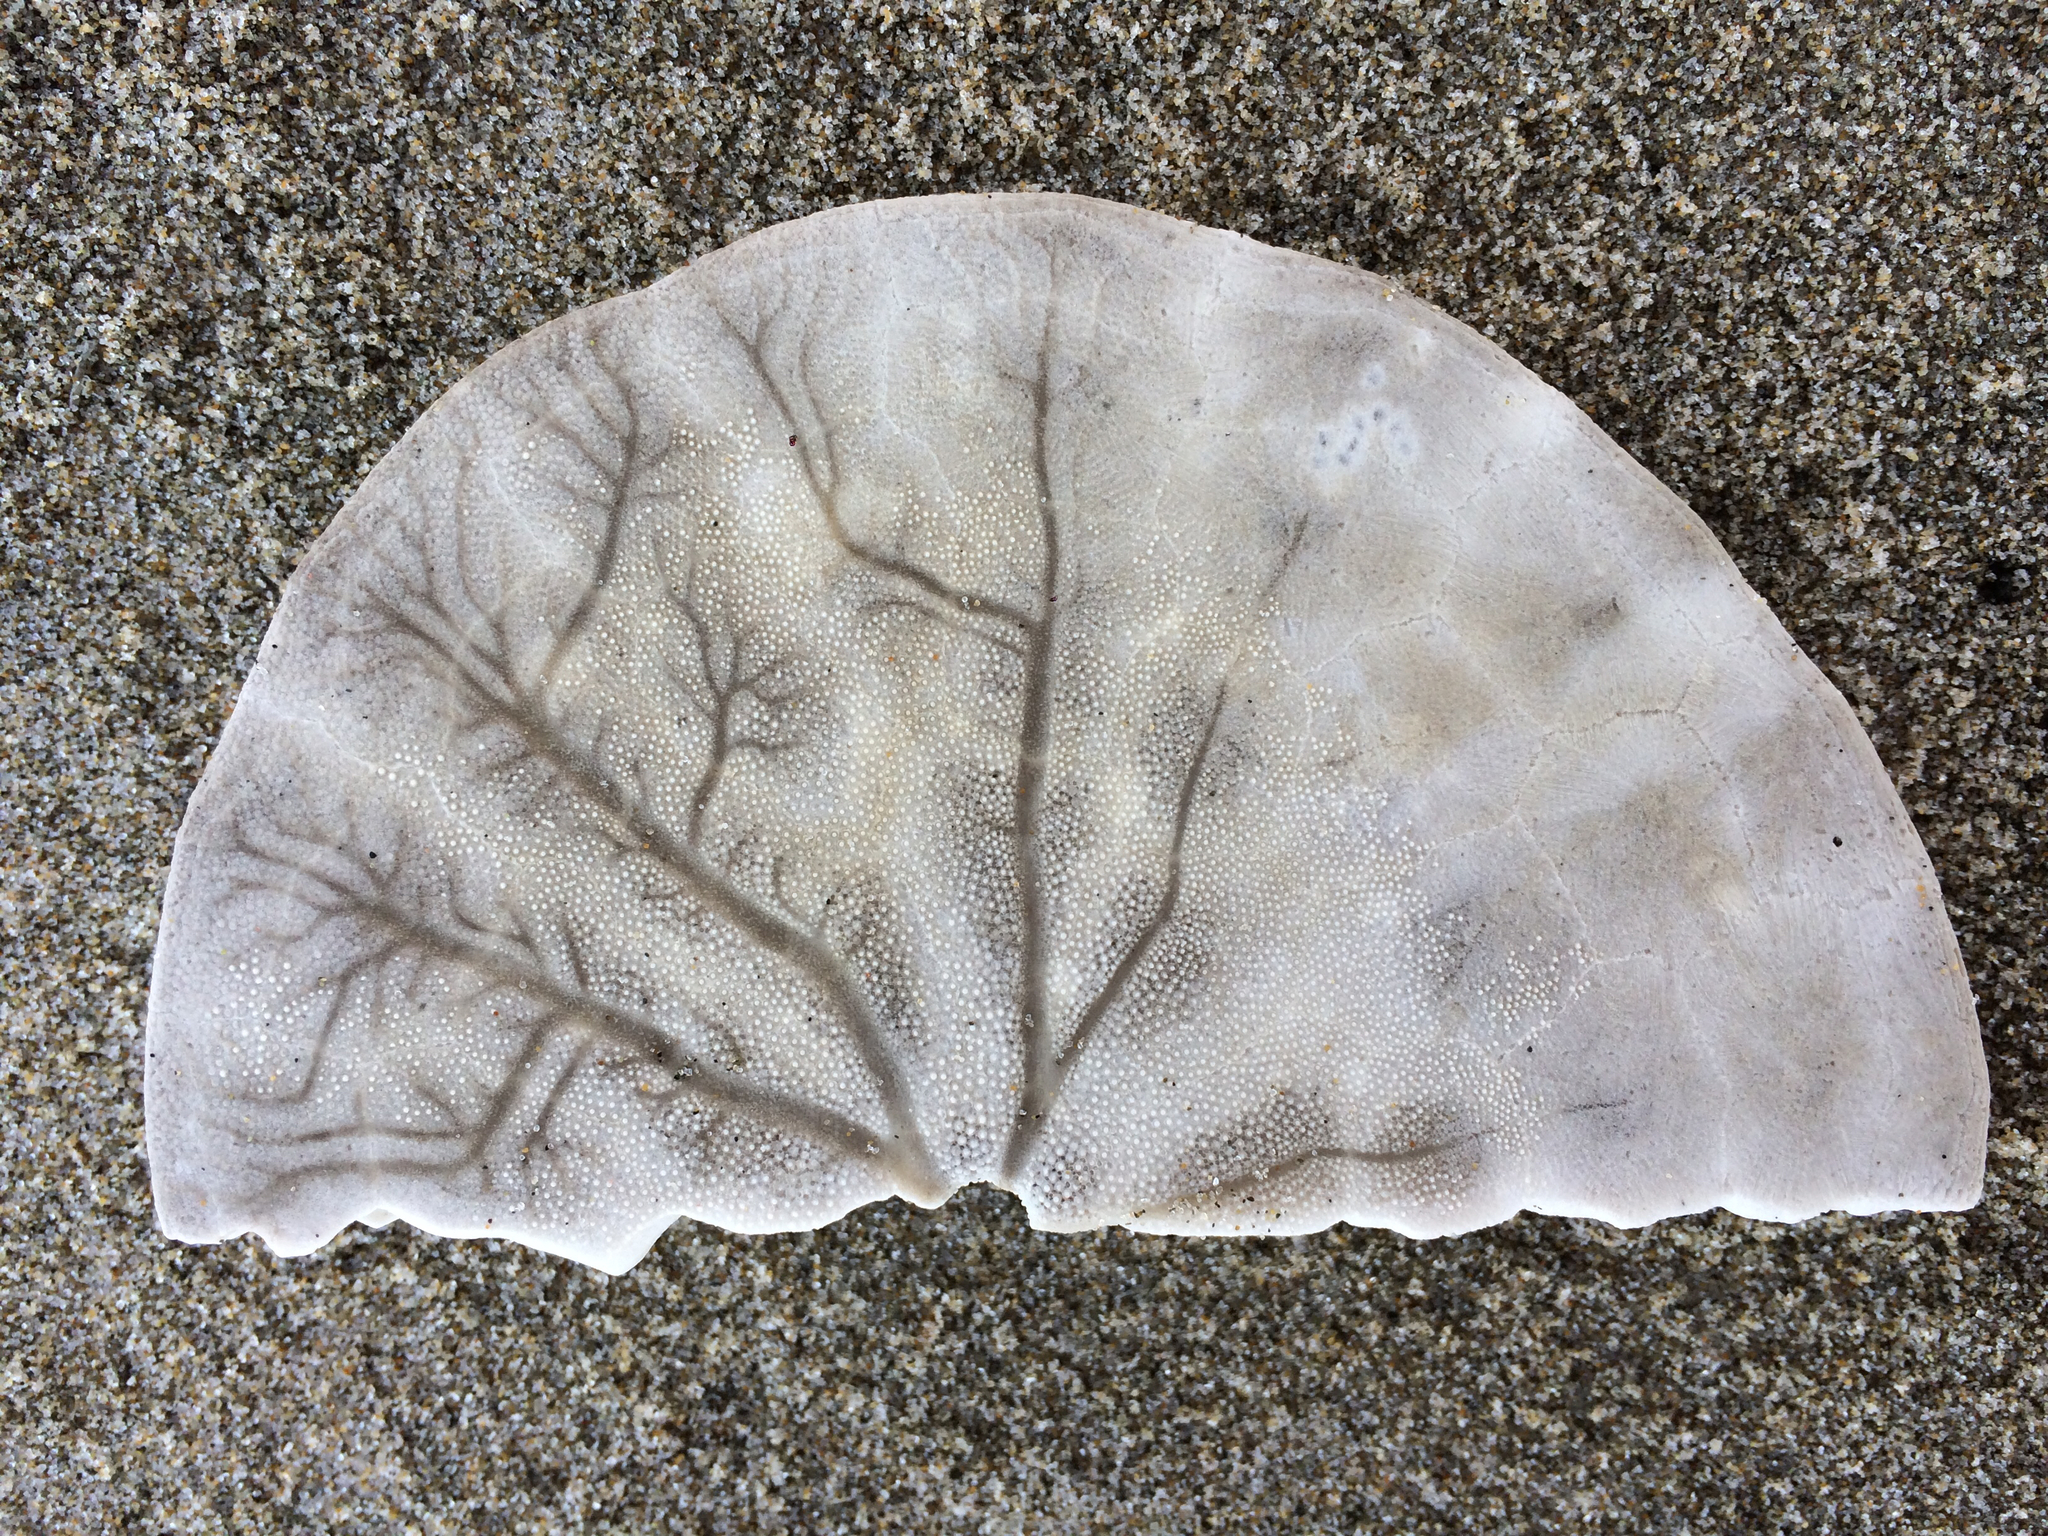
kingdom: Animalia
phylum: Echinodermata
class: Echinoidea
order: Echinolampadacea
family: Dendrasteridae
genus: Dendraster
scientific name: Dendraster excentricus
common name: Eccentric sand dollar sea urchin
